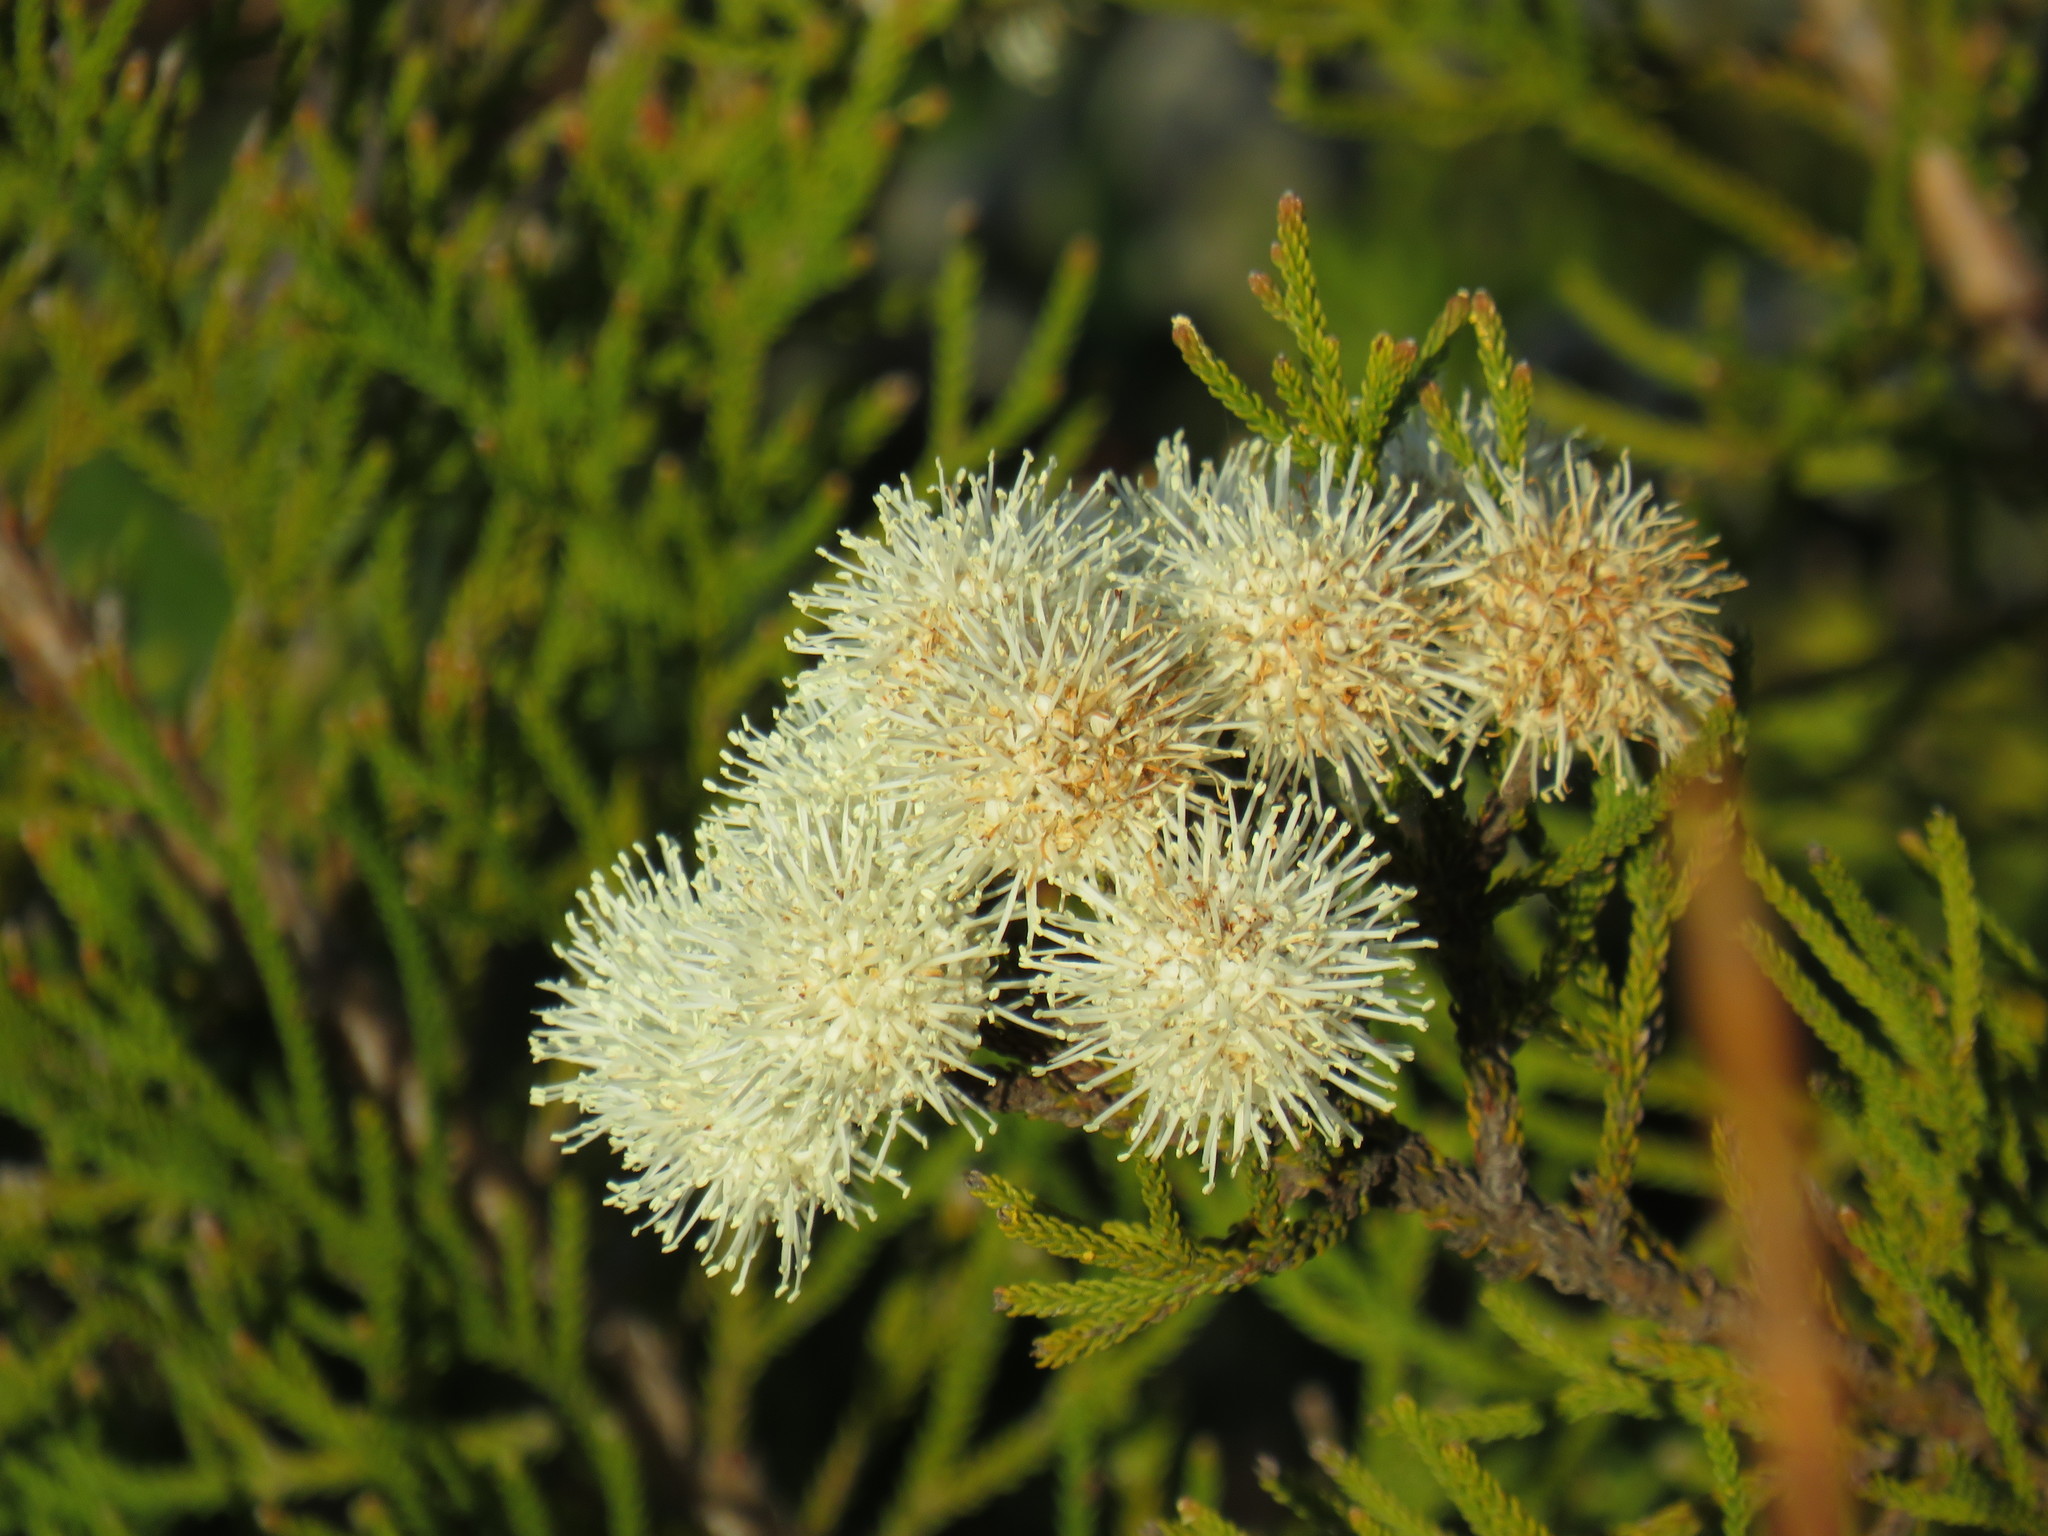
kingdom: Plantae
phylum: Tracheophyta
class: Magnoliopsida
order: Bruniales
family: Bruniaceae
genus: Brunia
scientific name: Brunia noduliflora
